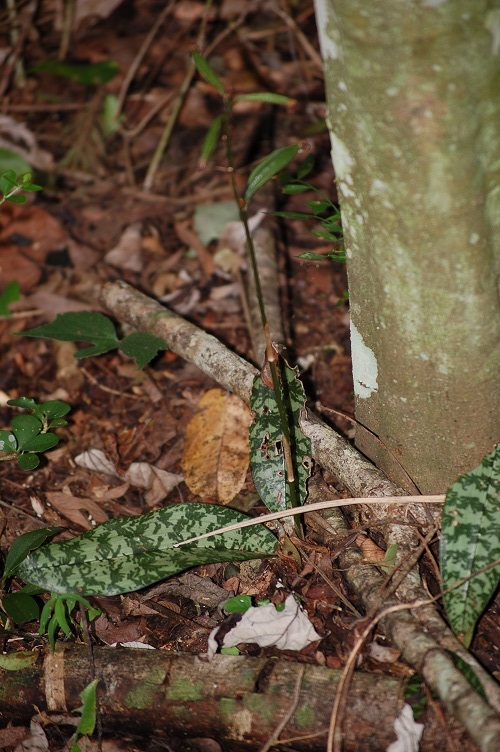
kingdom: Plantae
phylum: Tracheophyta
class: Liliopsida
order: Asparagales
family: Orchidaceae
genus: Eulophia
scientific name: Eulophia maculata
